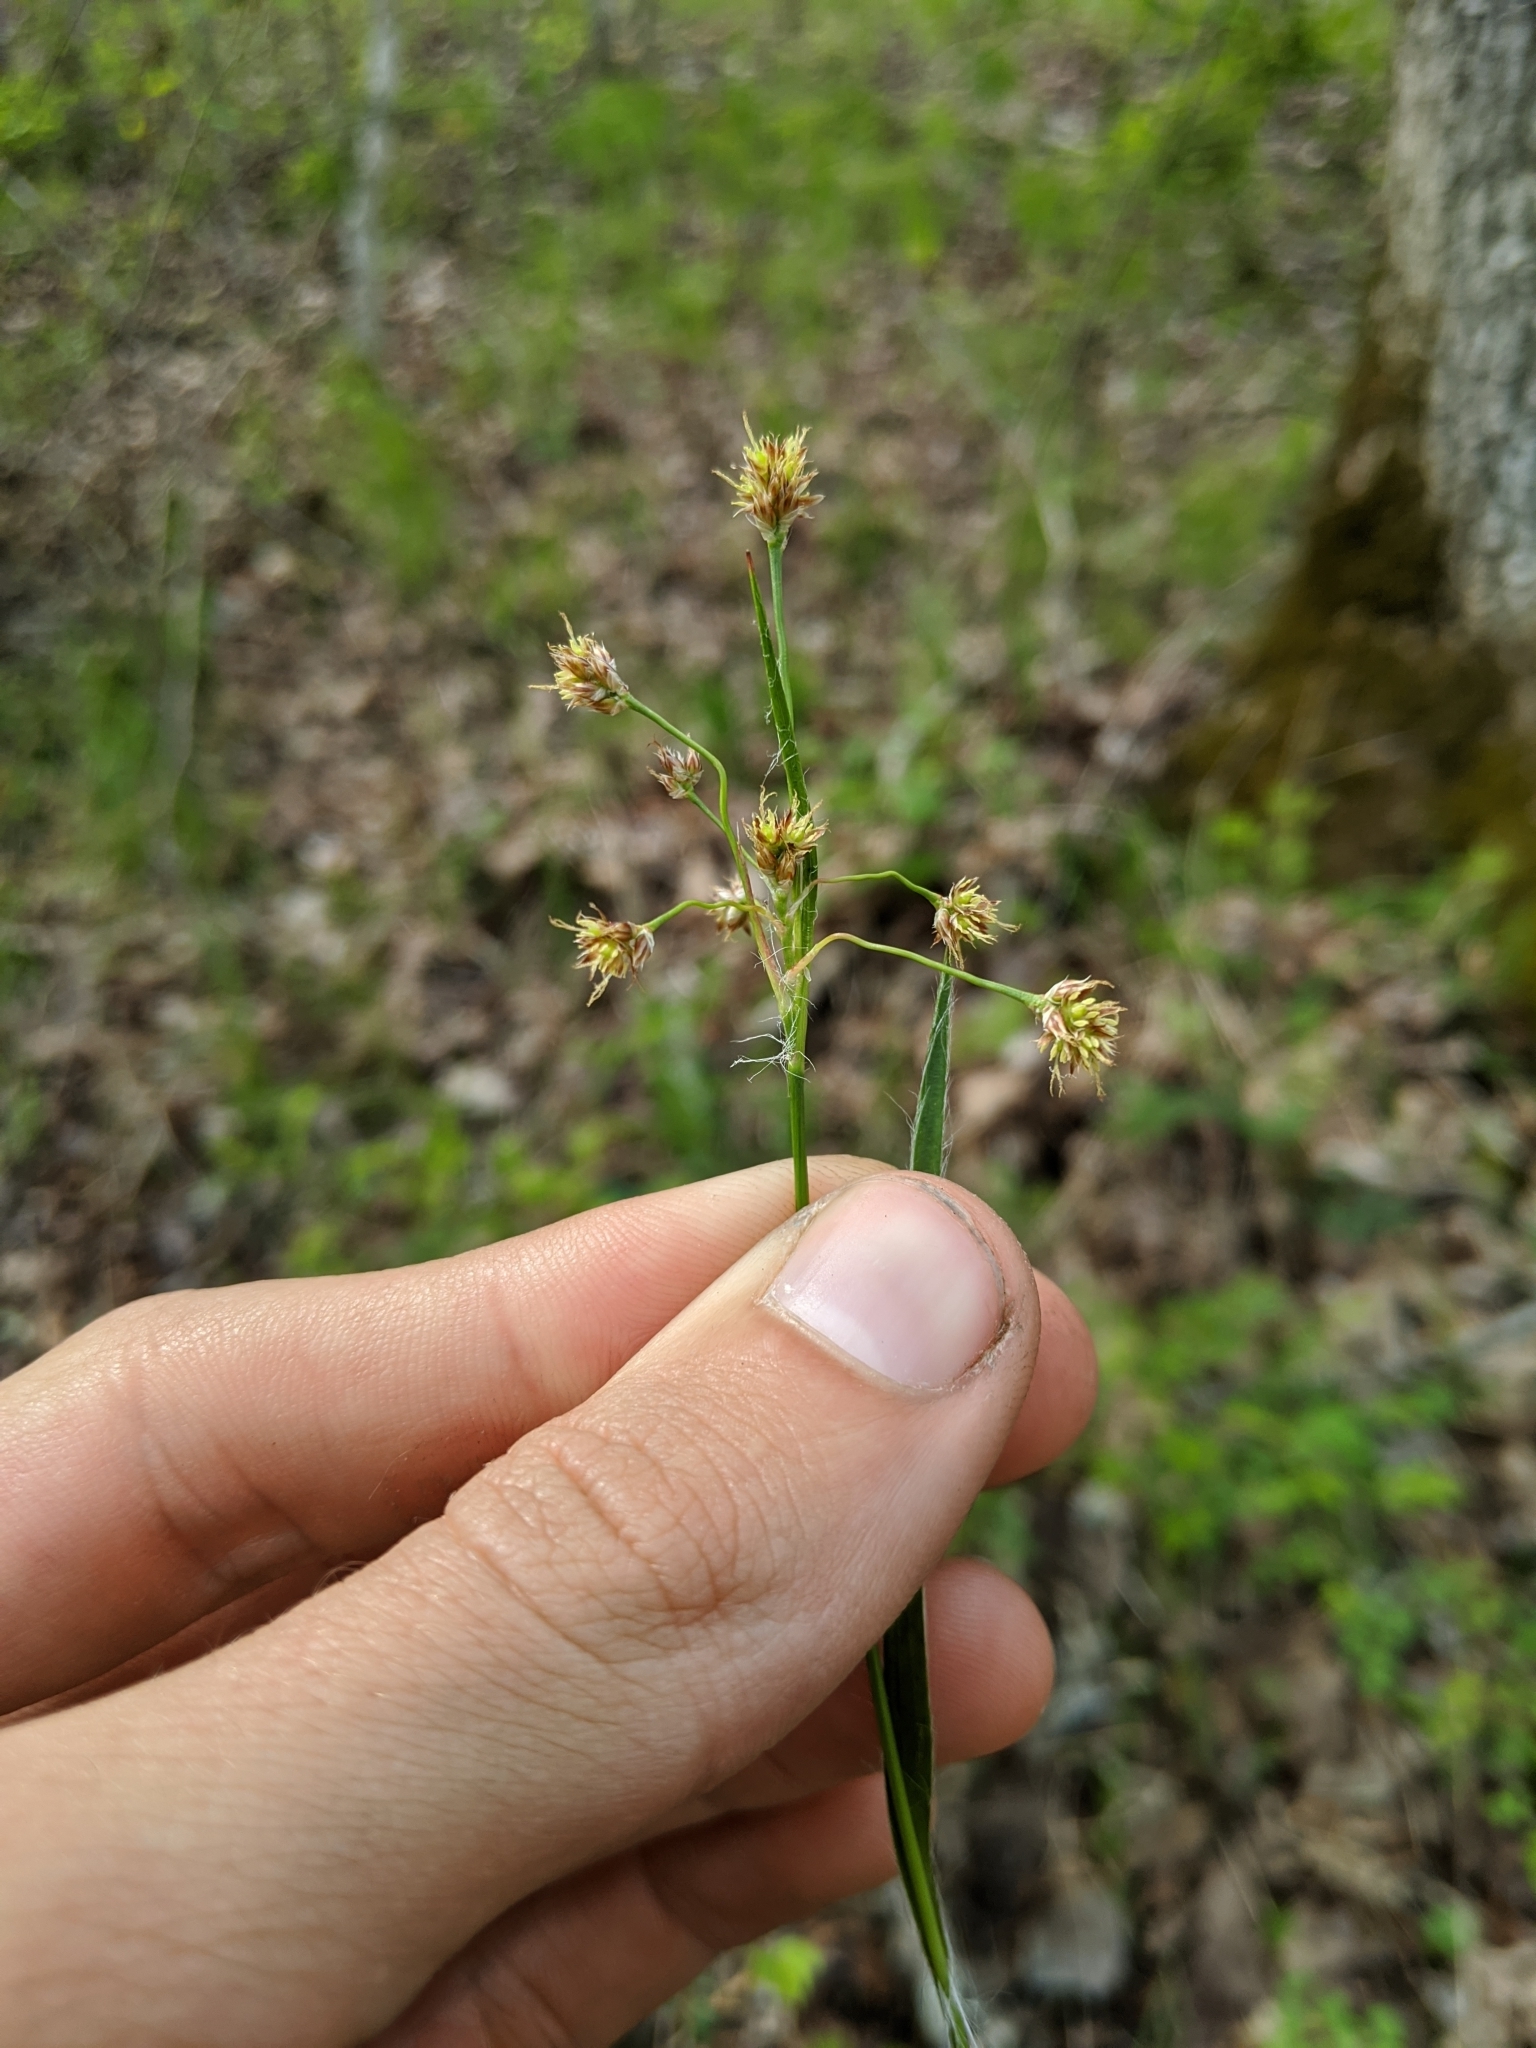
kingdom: Plantae
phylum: Tracheophyta
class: Liliopsida
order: Poales
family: Juncaceae
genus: Luzula
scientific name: Luzula echinata
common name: Hedgehog woodrush
